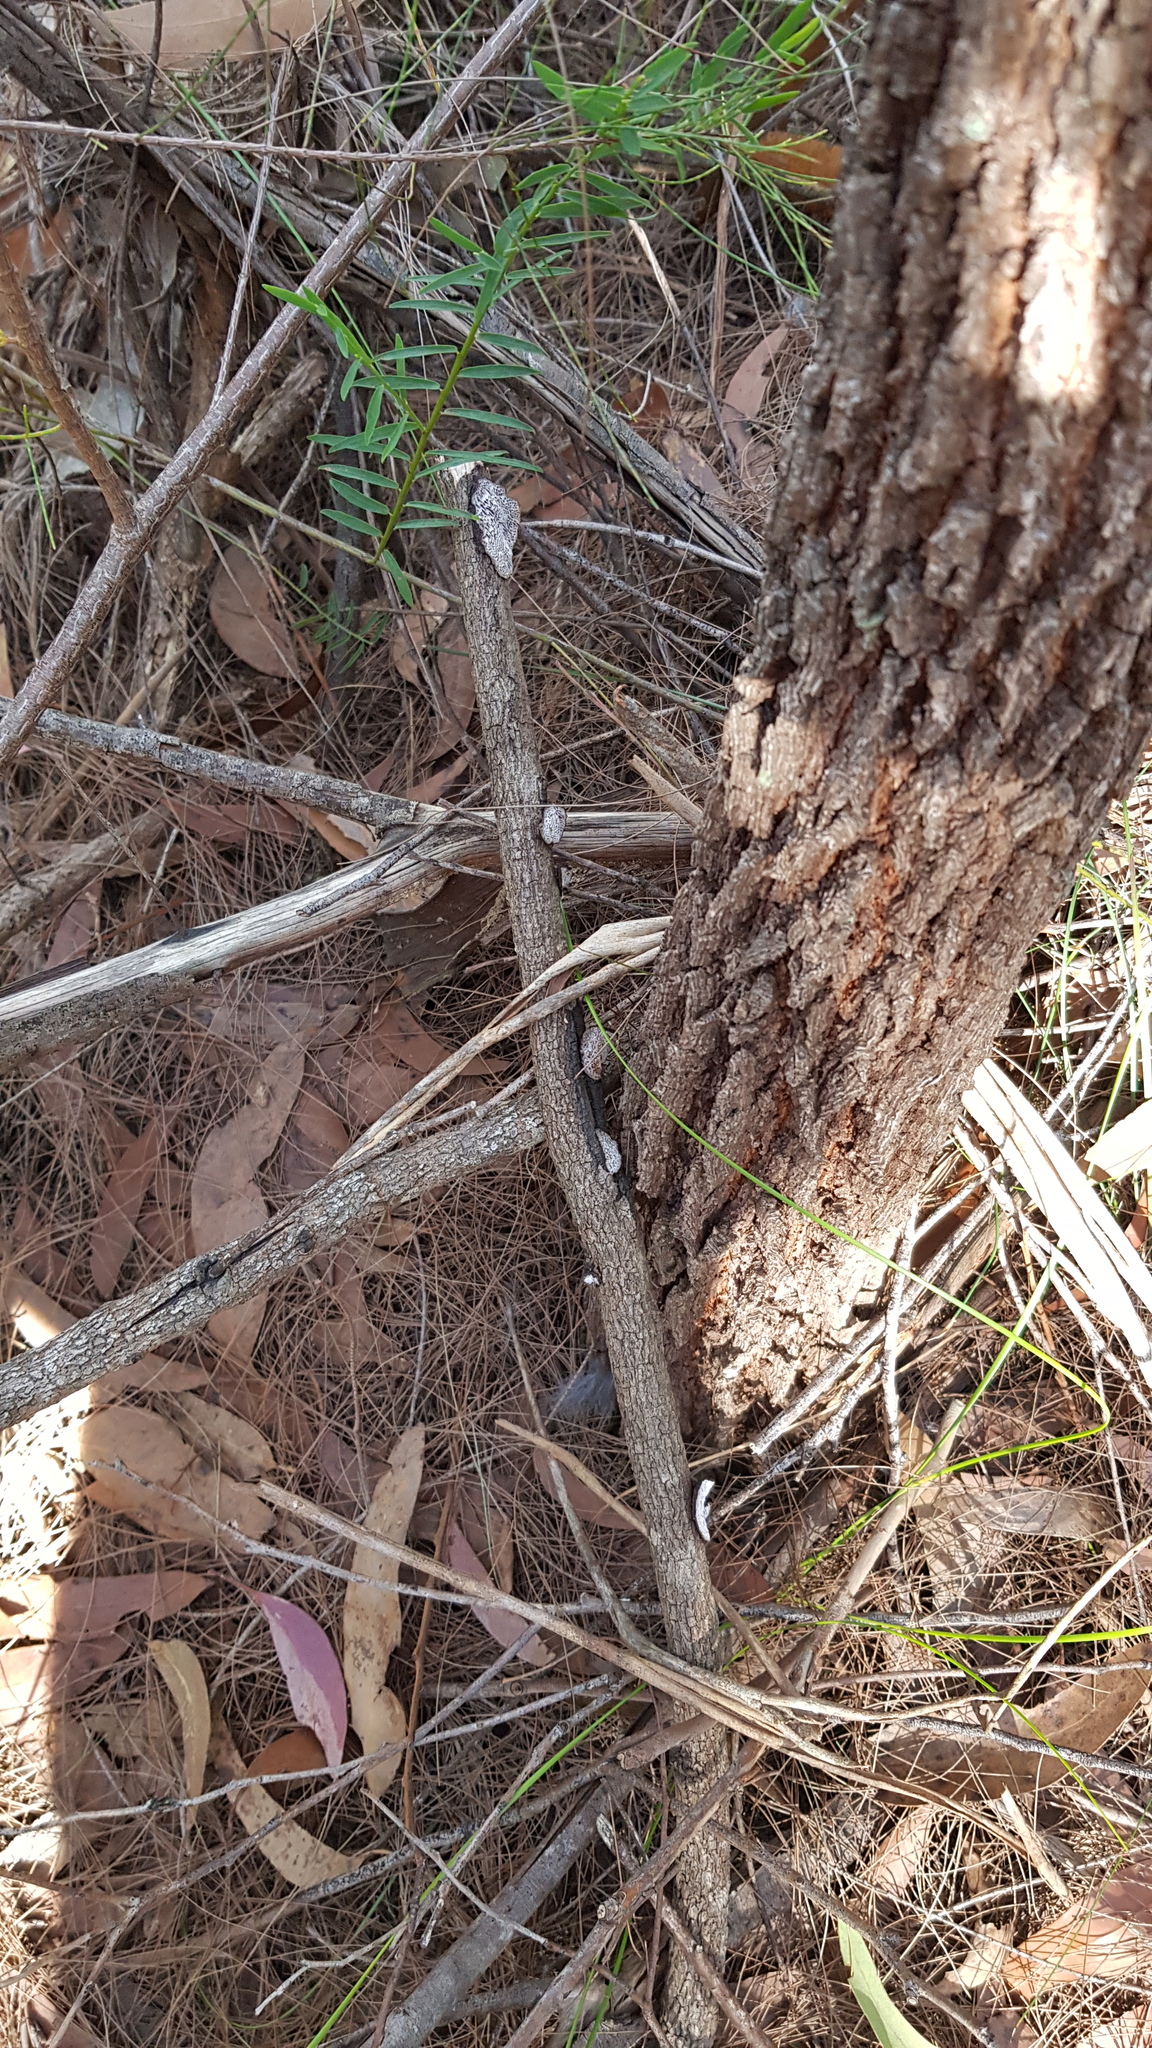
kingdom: Fungi
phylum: Basidiomycota
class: Agaricomycetes
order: Polyporales
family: Polyporaceae
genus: Phaeotrametes
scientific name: Phaeotrametes decipiens
